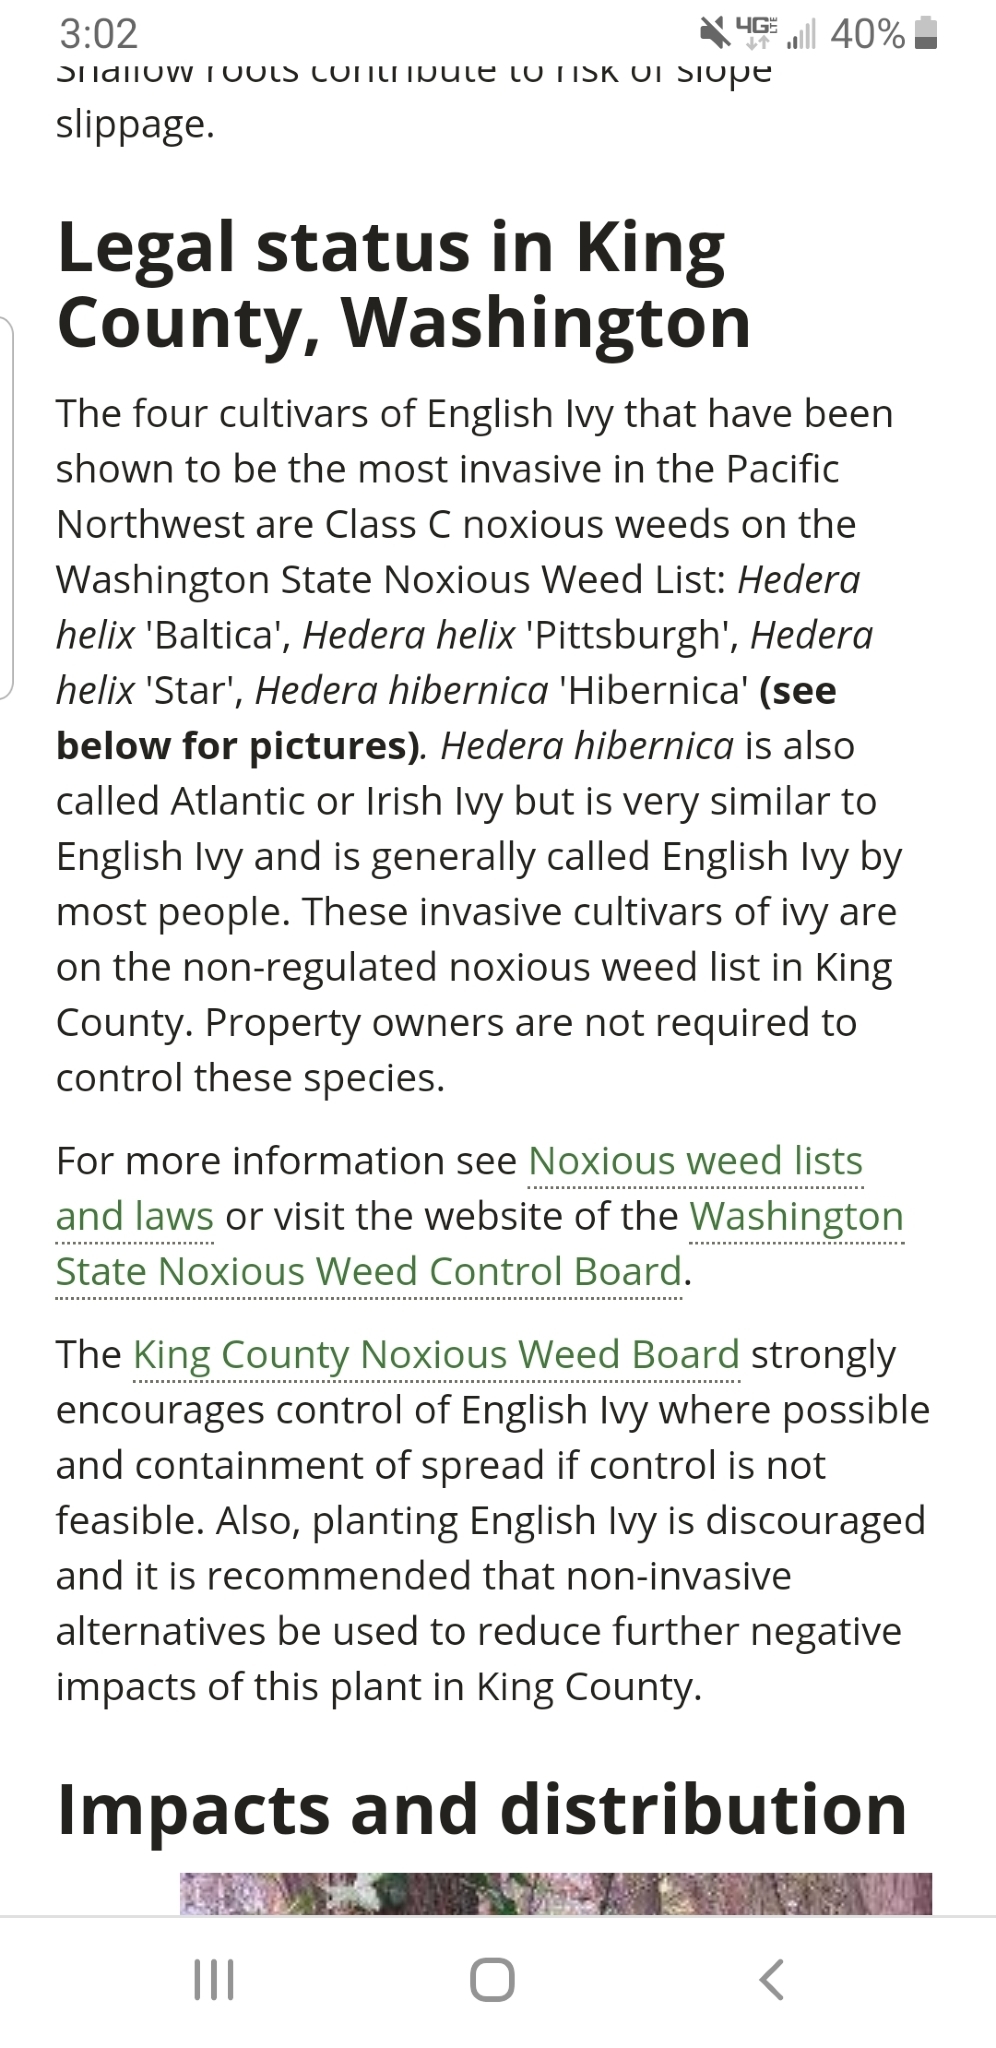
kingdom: Plantae
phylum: Tracheophyta
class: Magnoliopsida
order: Apiales
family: Araliaceae
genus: Hedera
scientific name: Hedera helix
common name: Ivy
